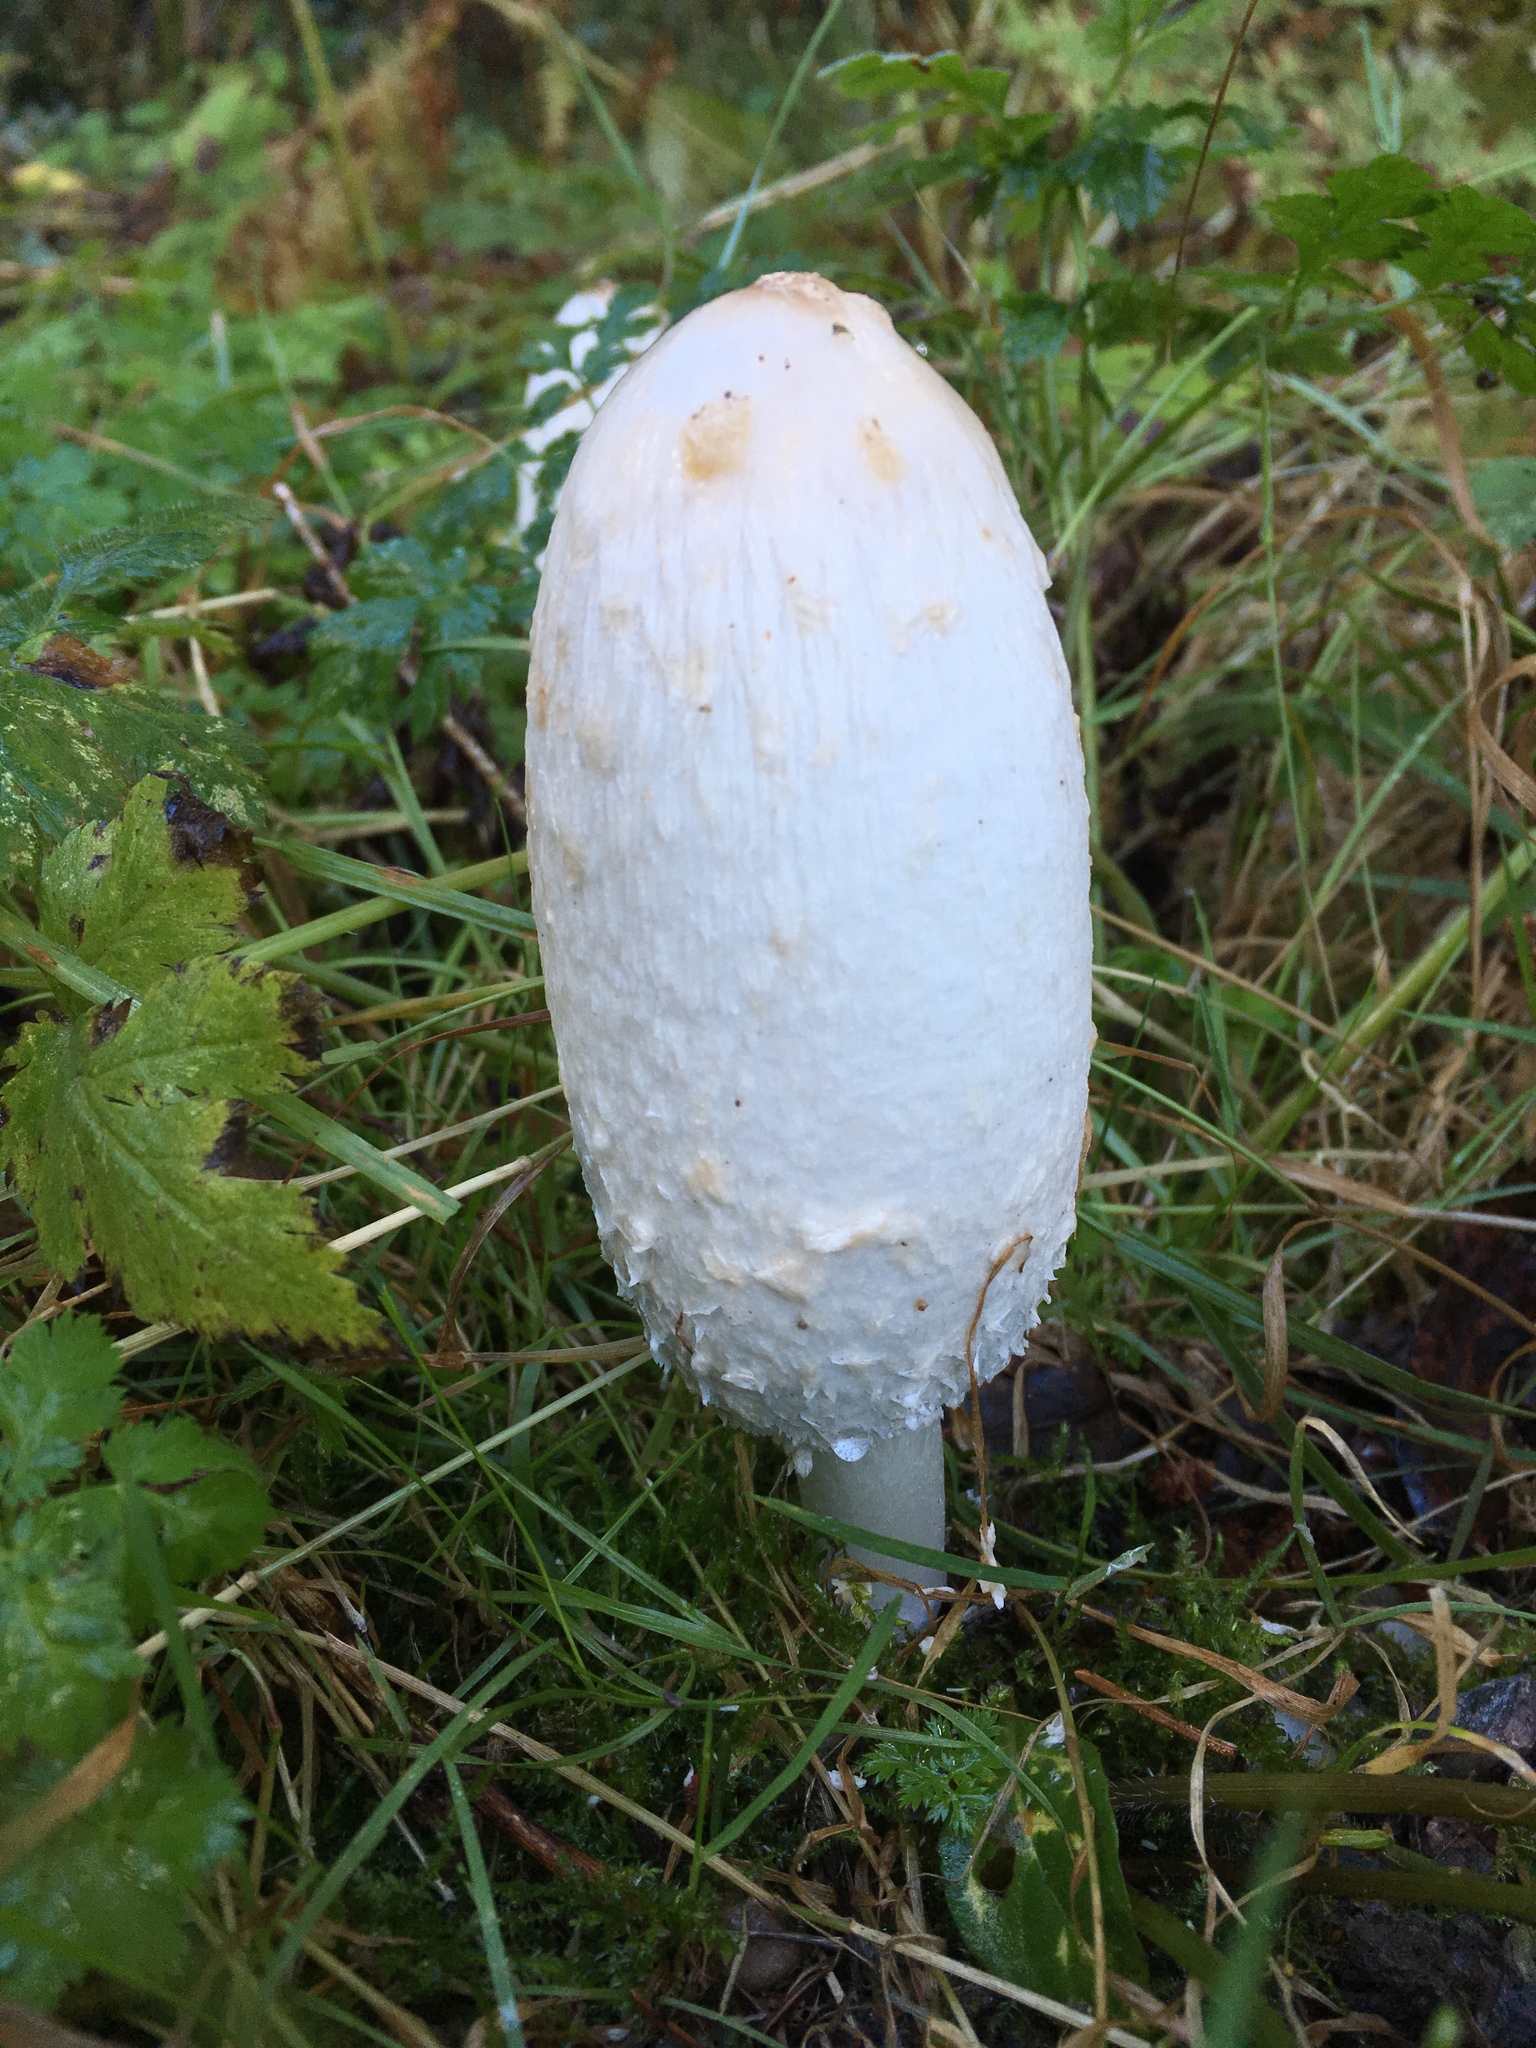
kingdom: Fungi
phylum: Basidiomycota
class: Agaricomycetes
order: Agaricales
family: Agaricaceae
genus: Coprinus
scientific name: Coprinus comatus
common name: Lawyer's wig
